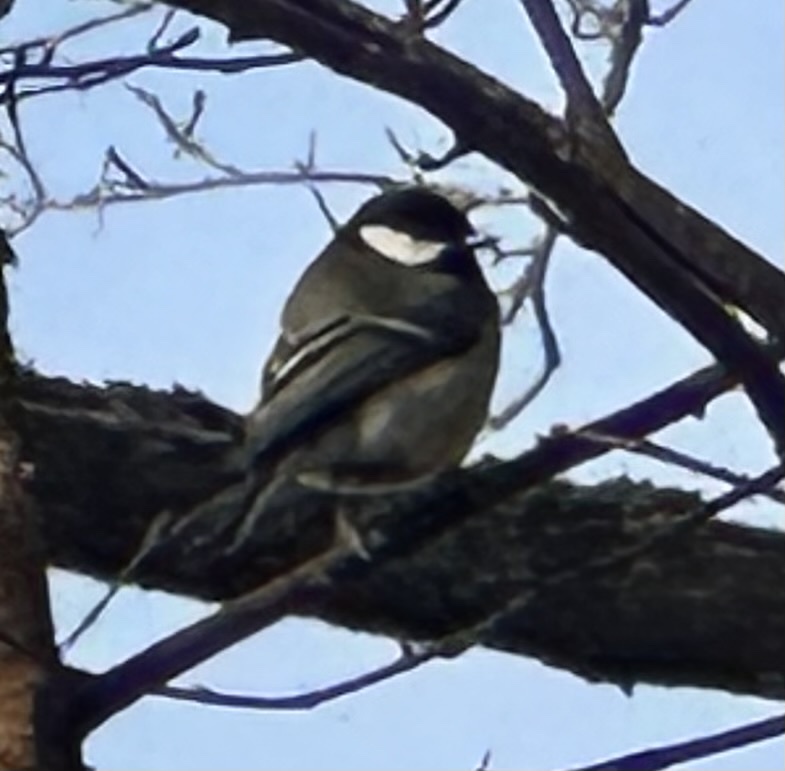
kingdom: Animalia
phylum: Chordata
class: Aves
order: Passeriformes
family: Paridae
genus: Parus
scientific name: Parus major
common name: Great tit
